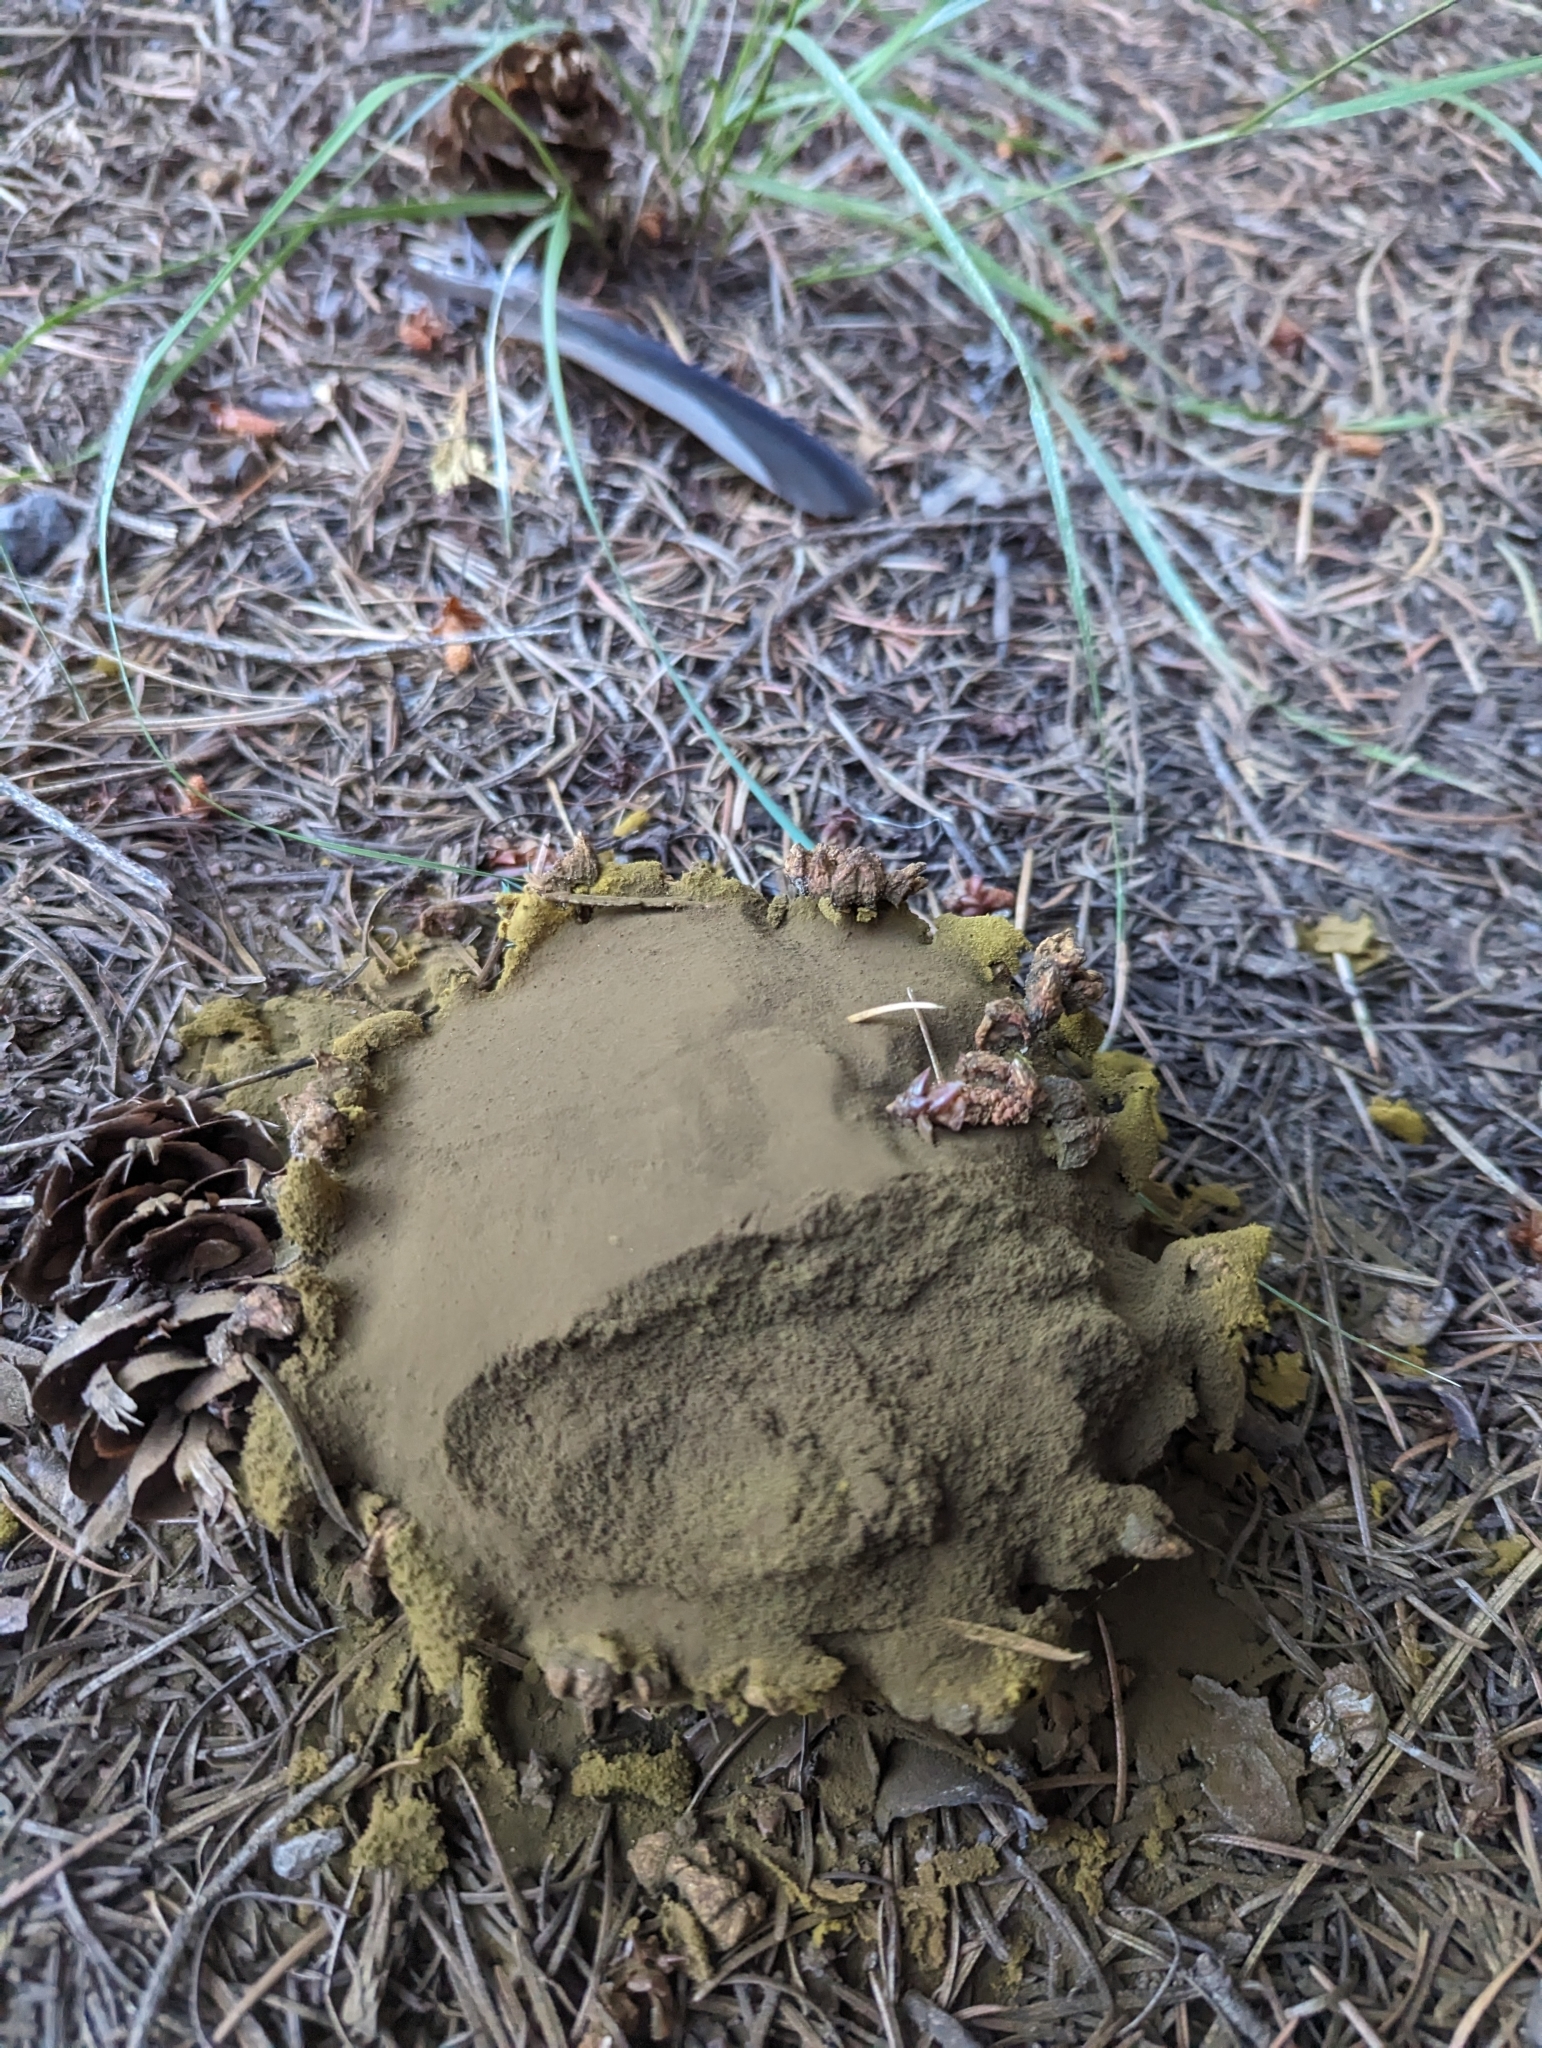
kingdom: Fungi
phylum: Basidiomycota
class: Agaricomycetes
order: Agaricales
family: Lycoperdaceae
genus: Calbovista
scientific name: Calbovista subsculpta
